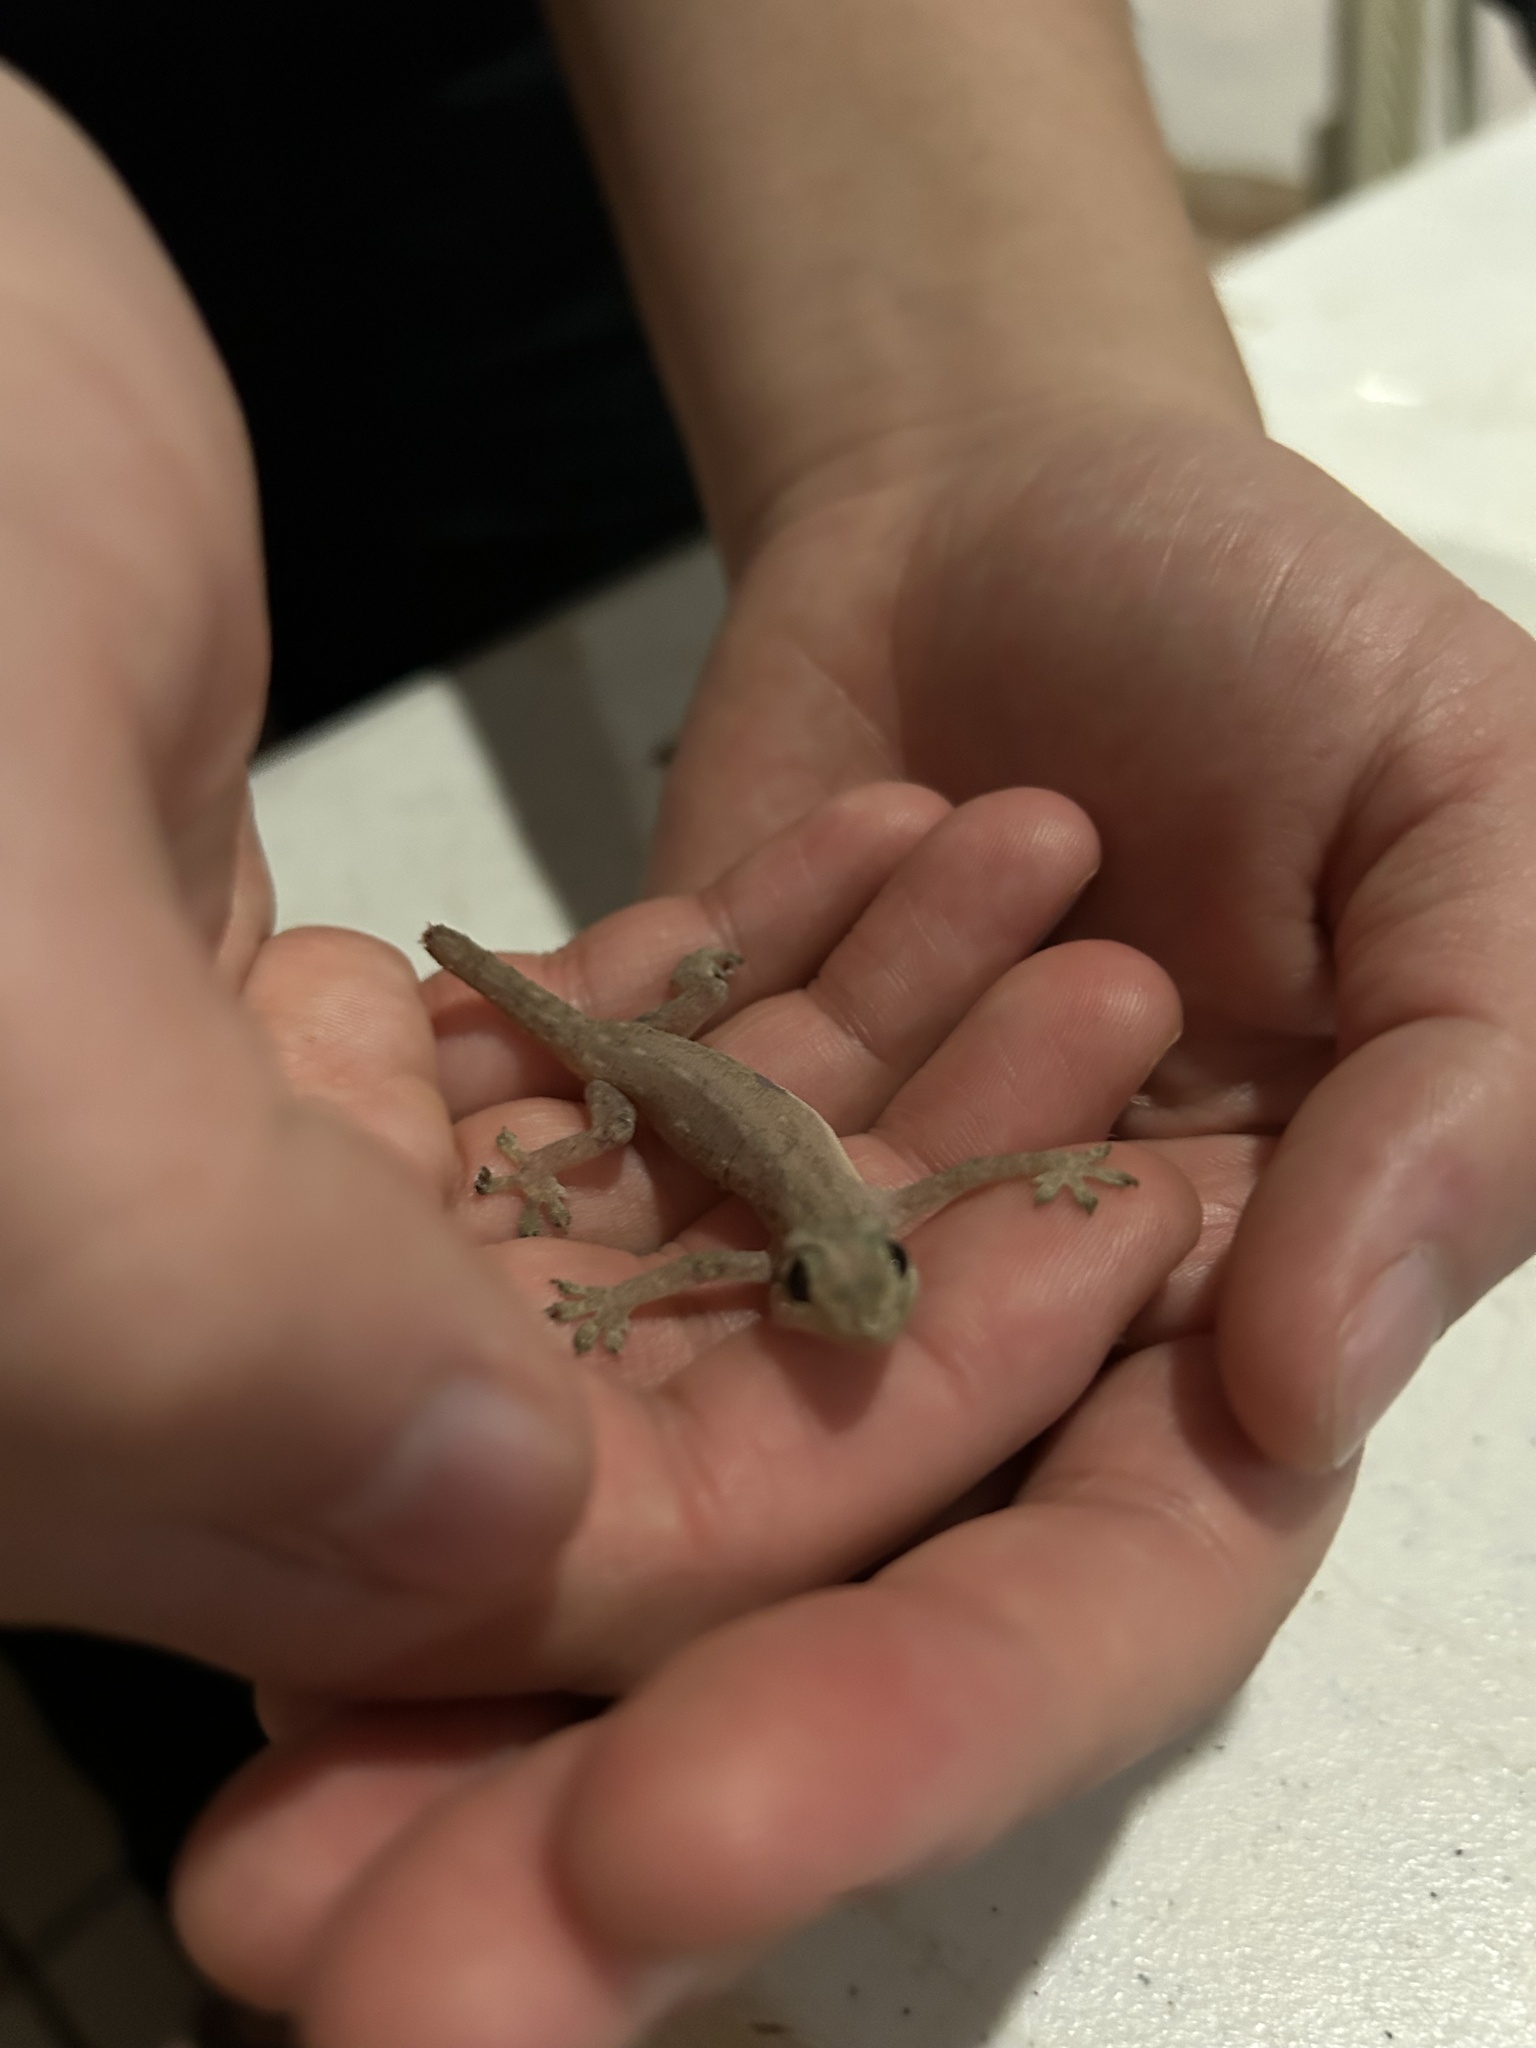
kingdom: Animalia
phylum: Chordata
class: Squamata
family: Gekkonidae
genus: Hemidactylus
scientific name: Hemidactylus frenatus
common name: Common house gecko
